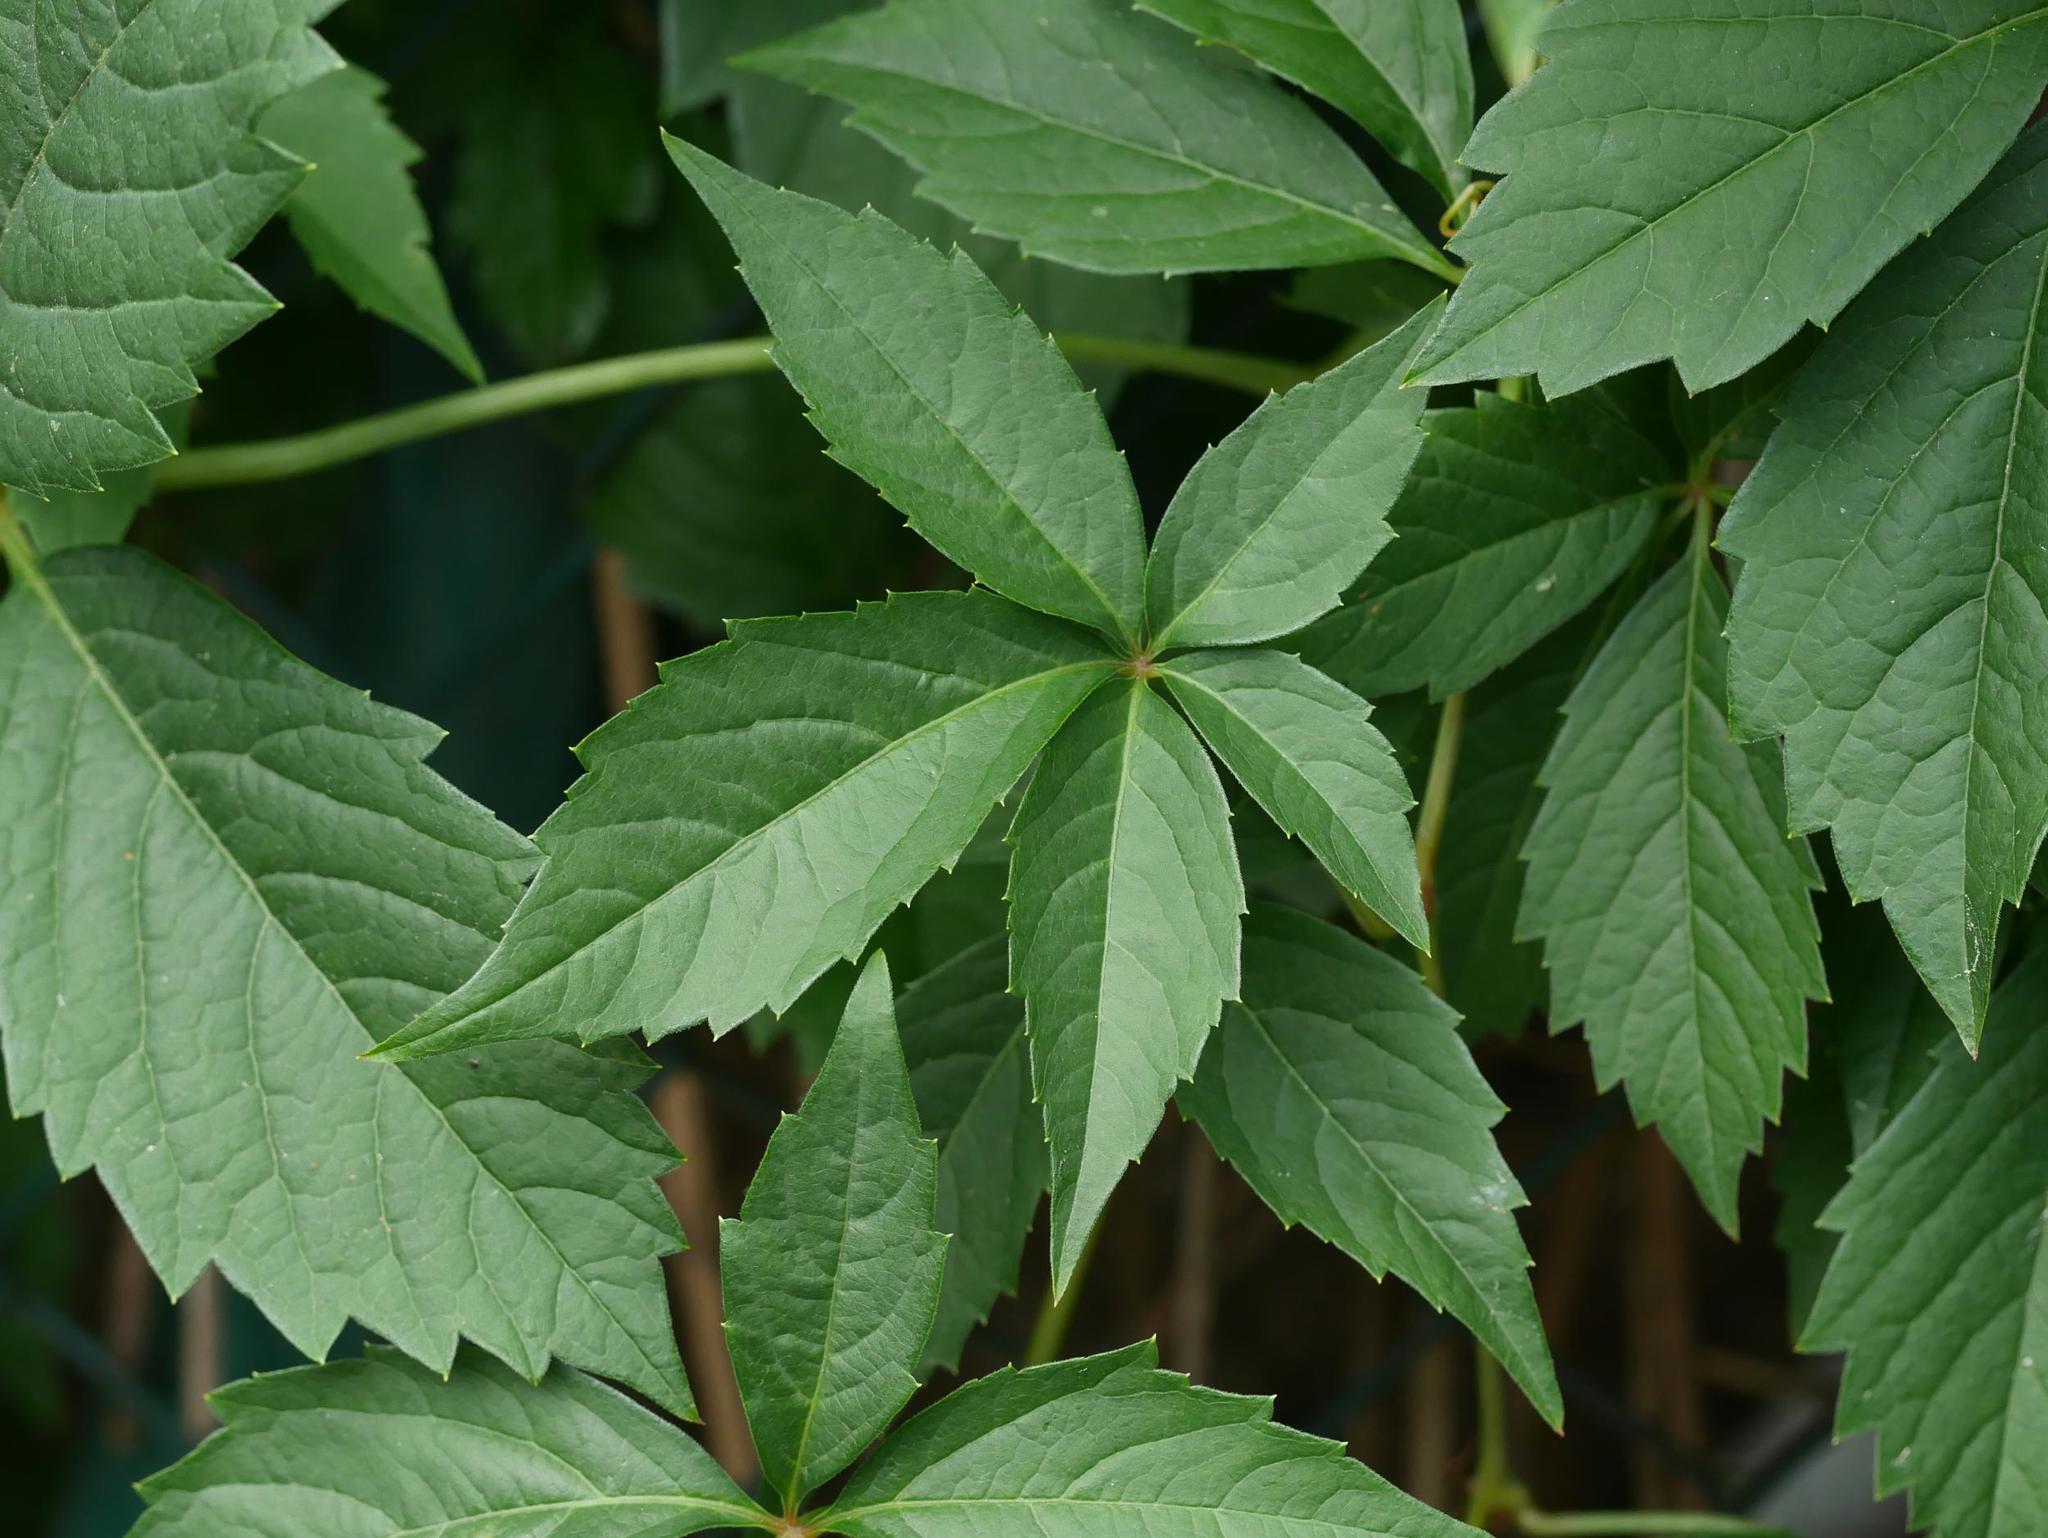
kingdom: Plantae
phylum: Tracheophyta
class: Magnoliopsida
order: Vitales
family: Vitaceae
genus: Parthenocissus
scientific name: Parthenocissus inserta
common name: False virginia-creeper
